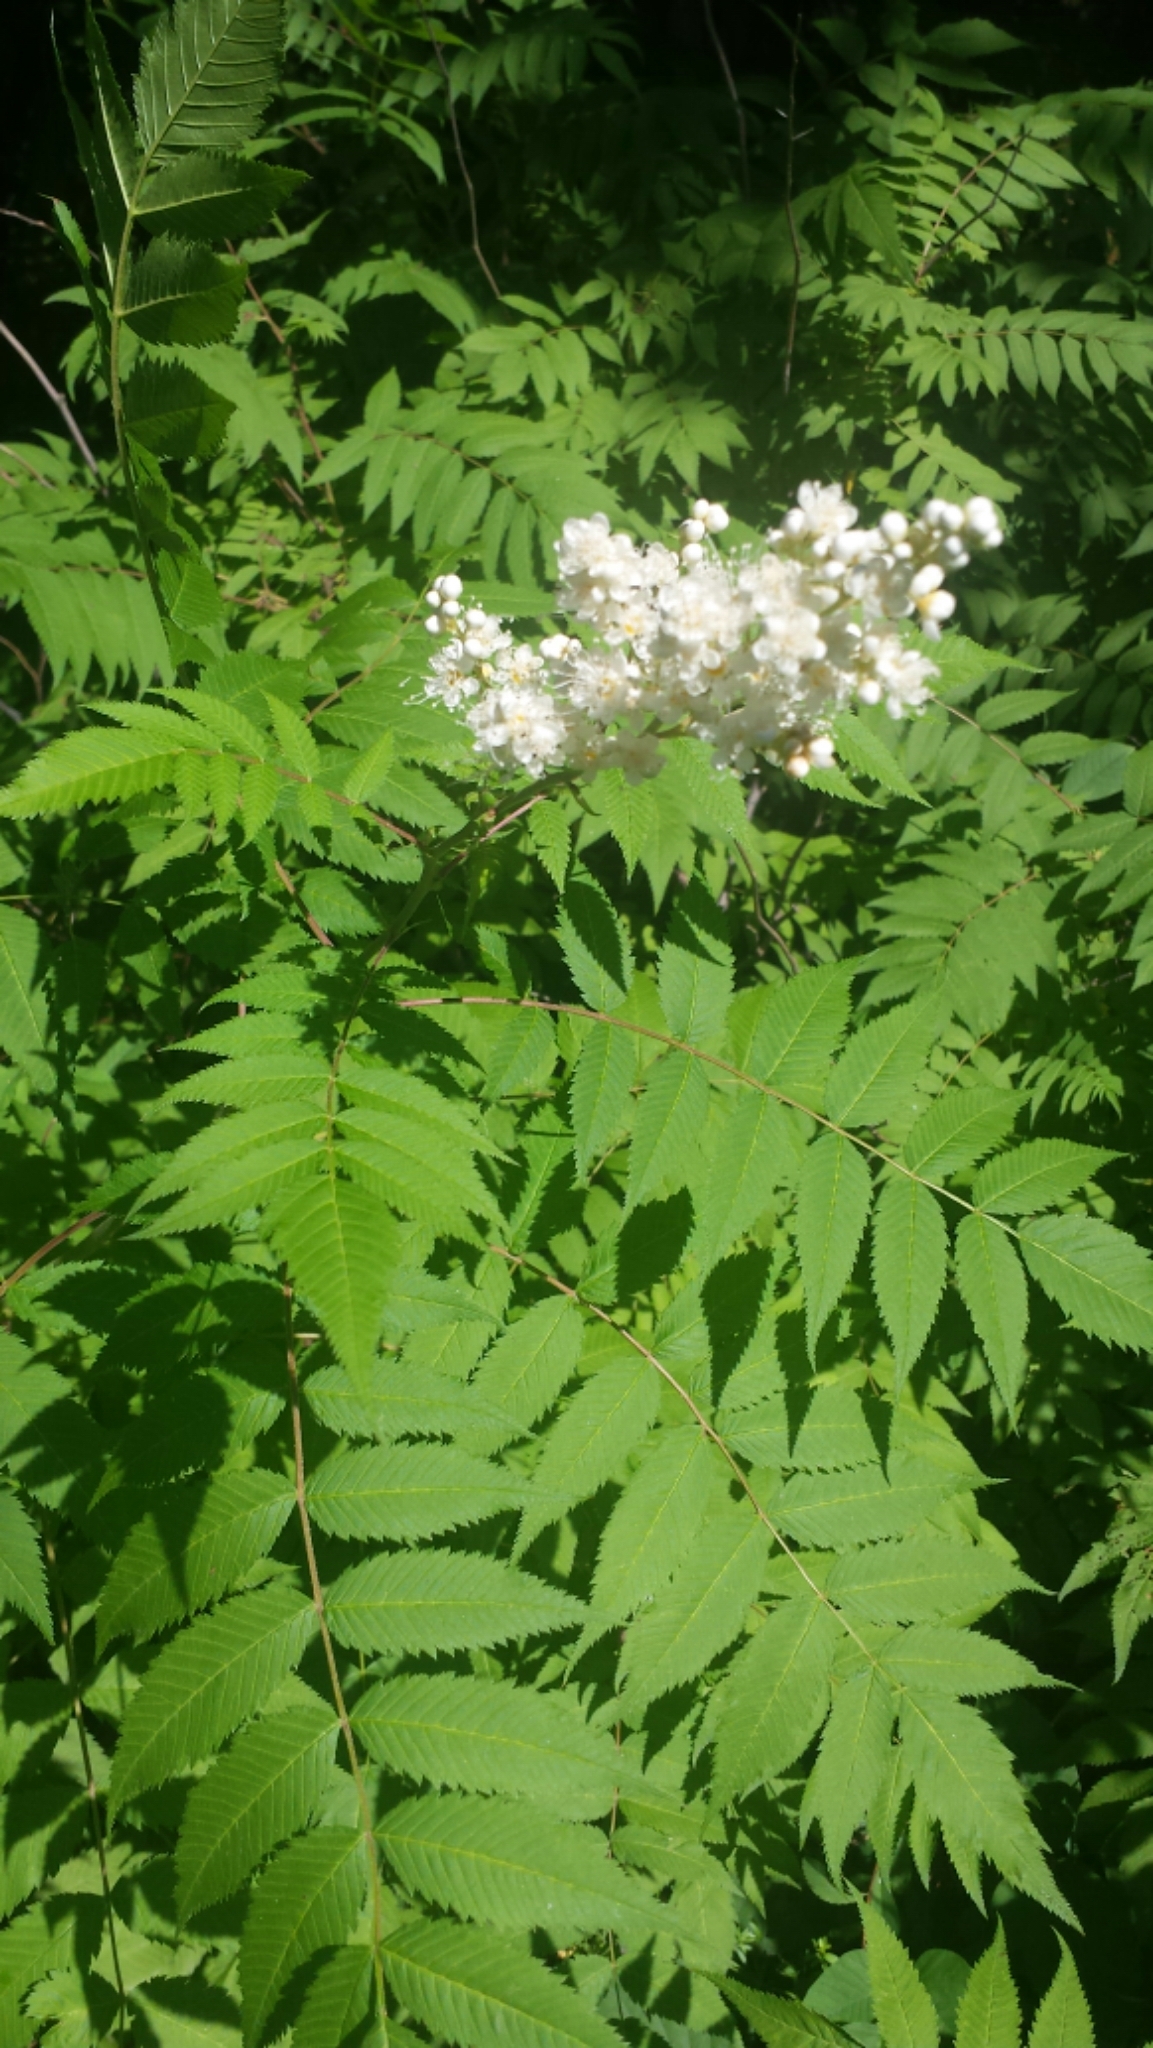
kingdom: Plantae
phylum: Tracheophyta
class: Magnoliopsida
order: Rosales
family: Rosaceae
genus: Sorbaria
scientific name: Sorbaria sorbifolia
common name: False spiraea
